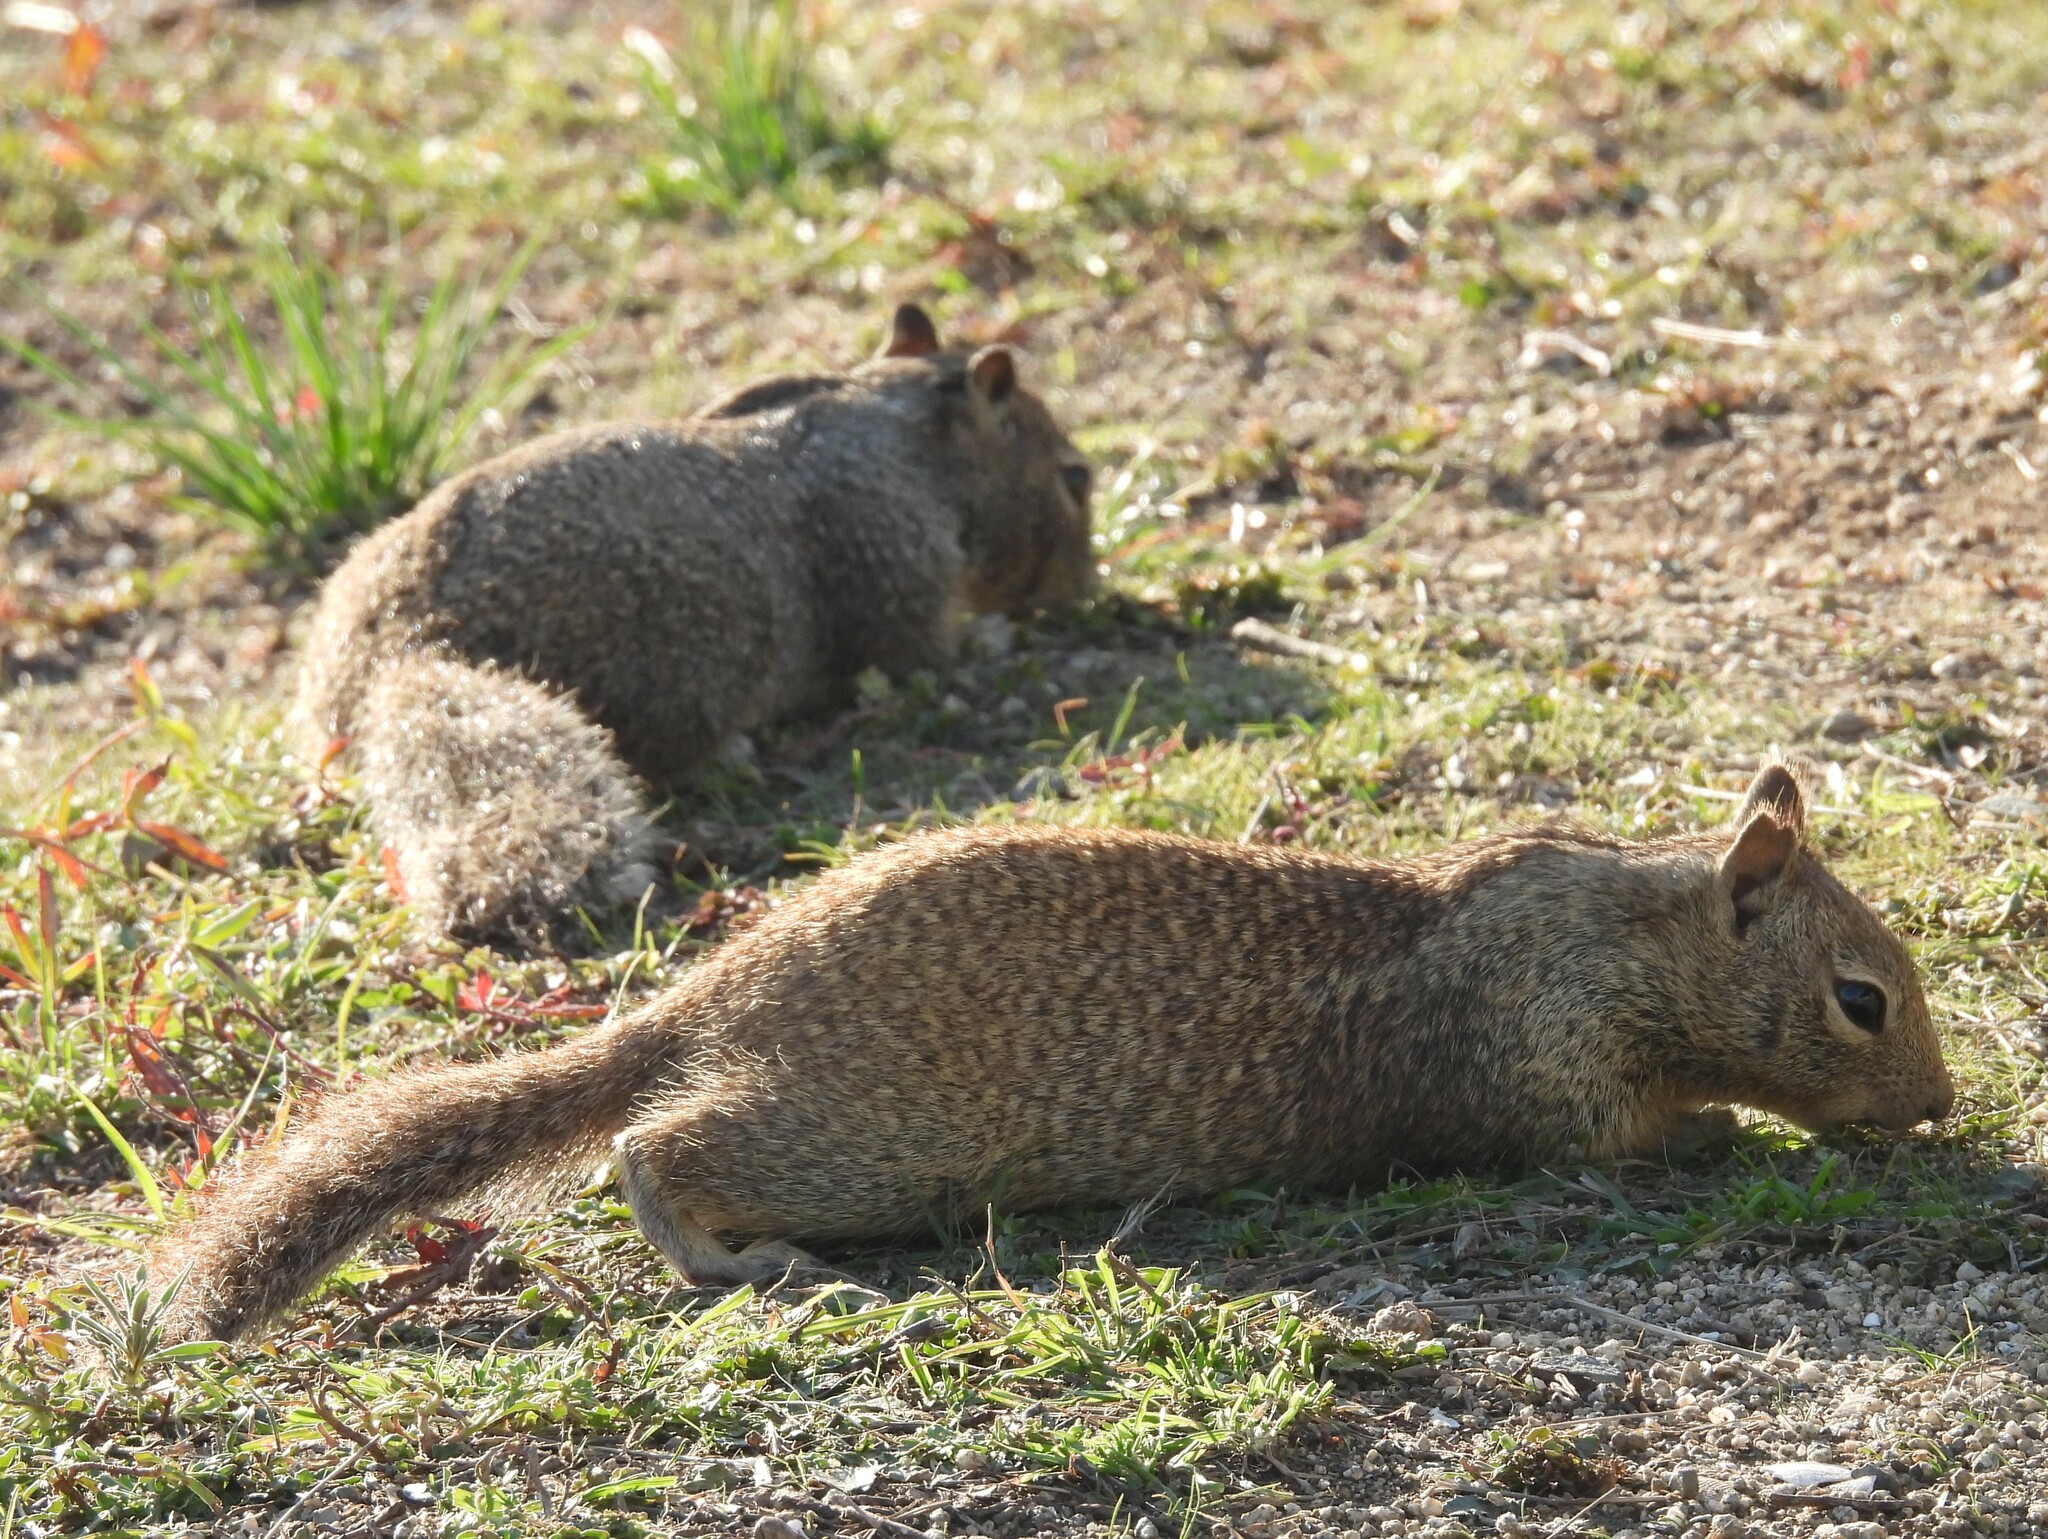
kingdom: Animalia
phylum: Chordata
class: Mammalia
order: Rodentia
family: Sciuridae
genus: Otospermophilus
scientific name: Otospermophilus beecheyi
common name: California ground squirrel
